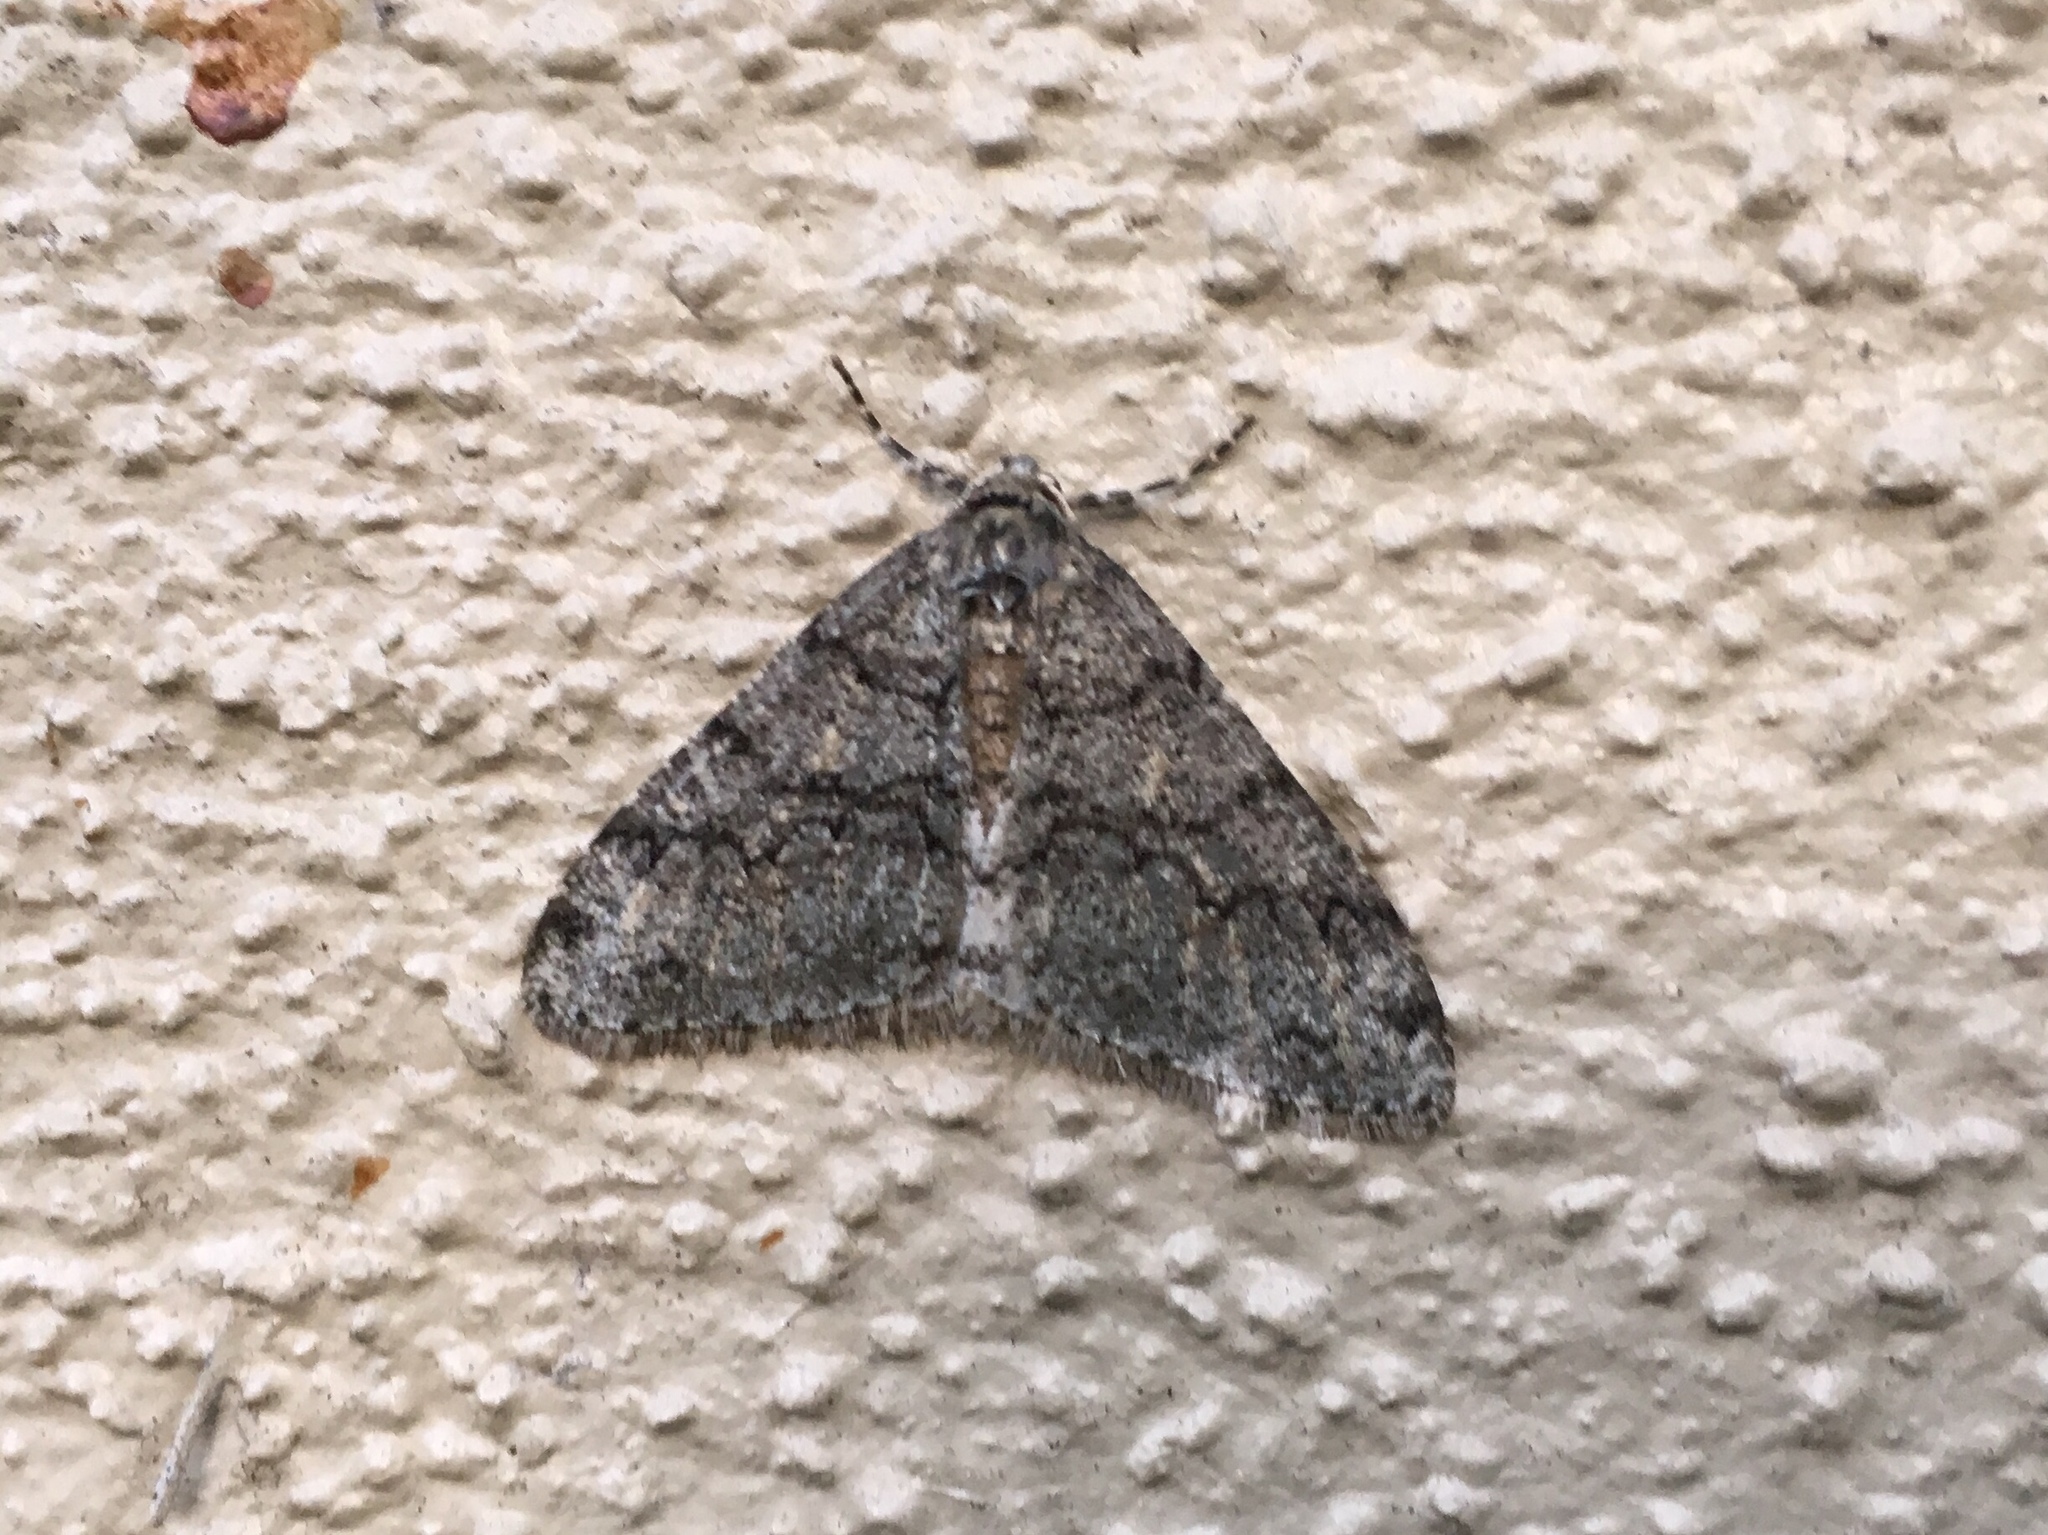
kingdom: Animalia
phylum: Arthropoda
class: Insecta
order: Lepidoptera
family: Geometridae
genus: Phigalia
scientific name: Phigalia denticulata
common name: Toothed phigalia
